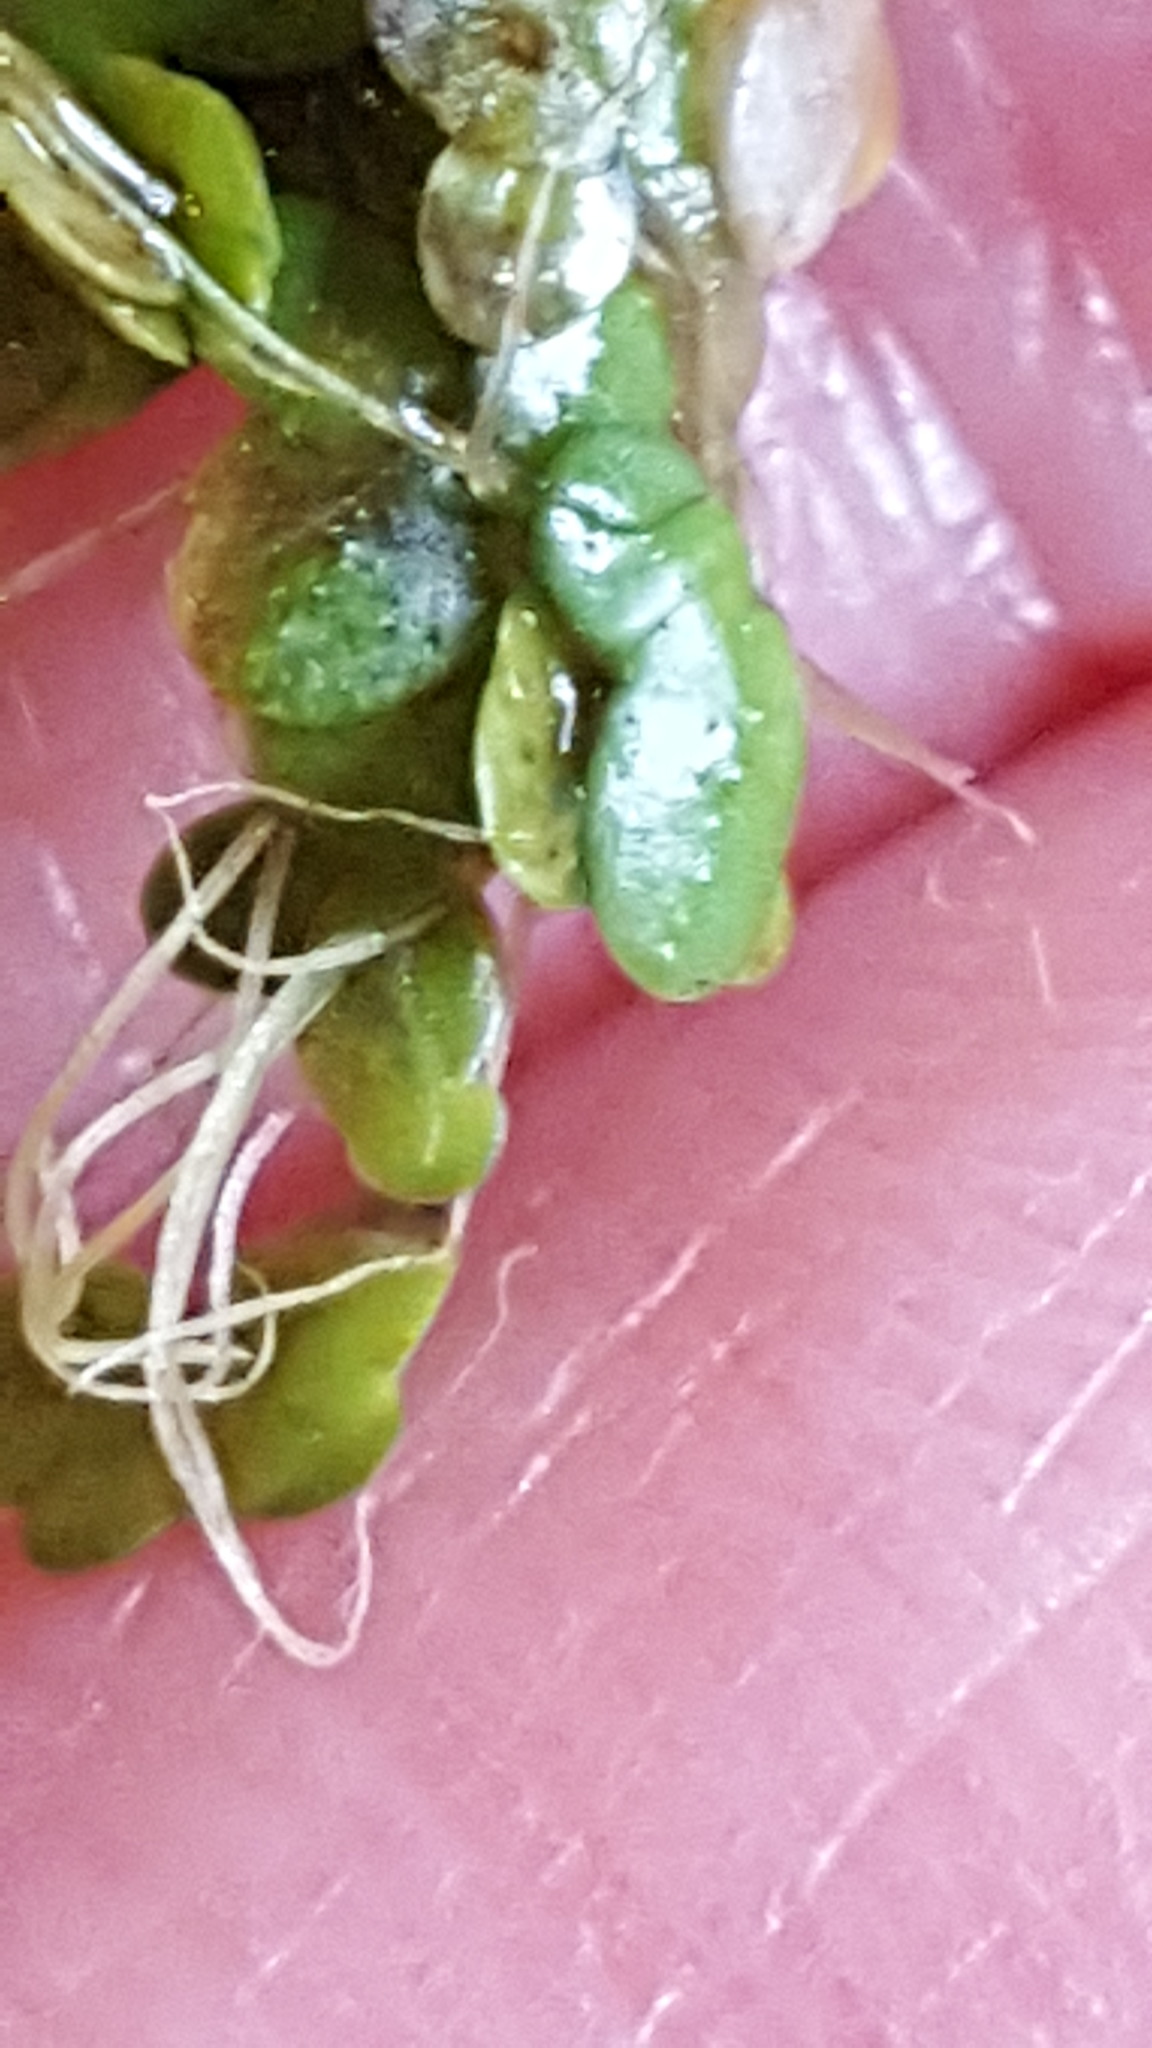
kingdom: Plantae
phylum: Tracheophyta
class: Liliopsida
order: Alismatales
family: Araceae
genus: Lemna
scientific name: Lemna turionifera
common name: Perennial duckweed
